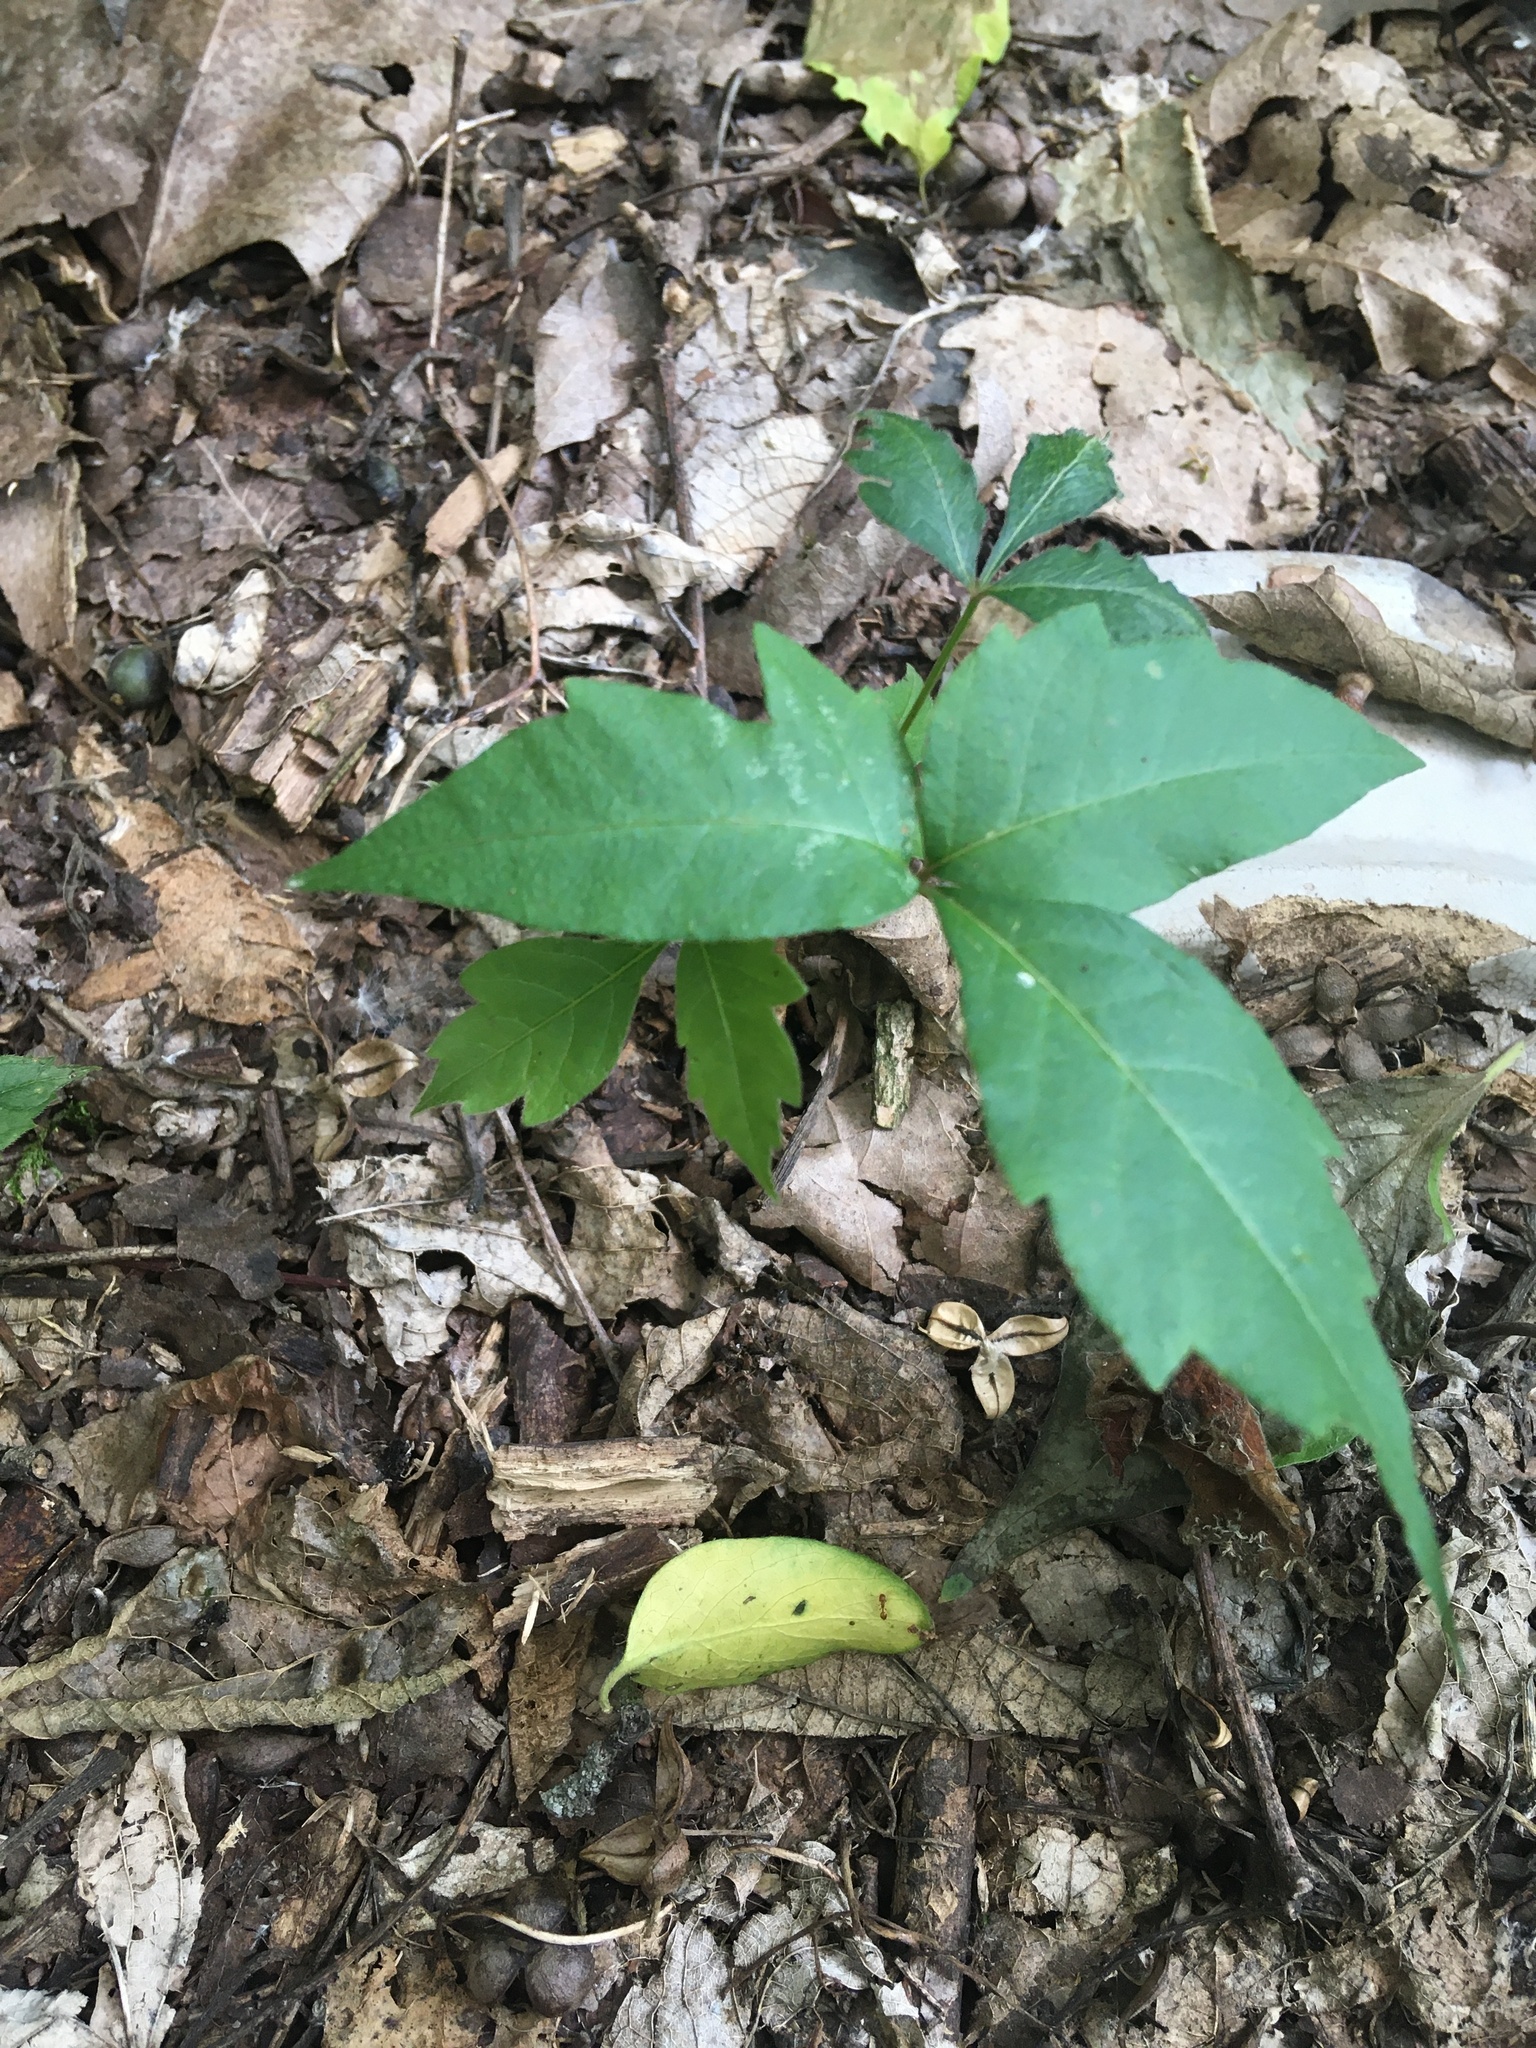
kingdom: Plantae
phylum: Tracheophyta
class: Magnoliopsida
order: Sapindales
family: Anacardiaceae
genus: Toxicodendron
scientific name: Toxicodendron radicans
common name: Poison ivy
